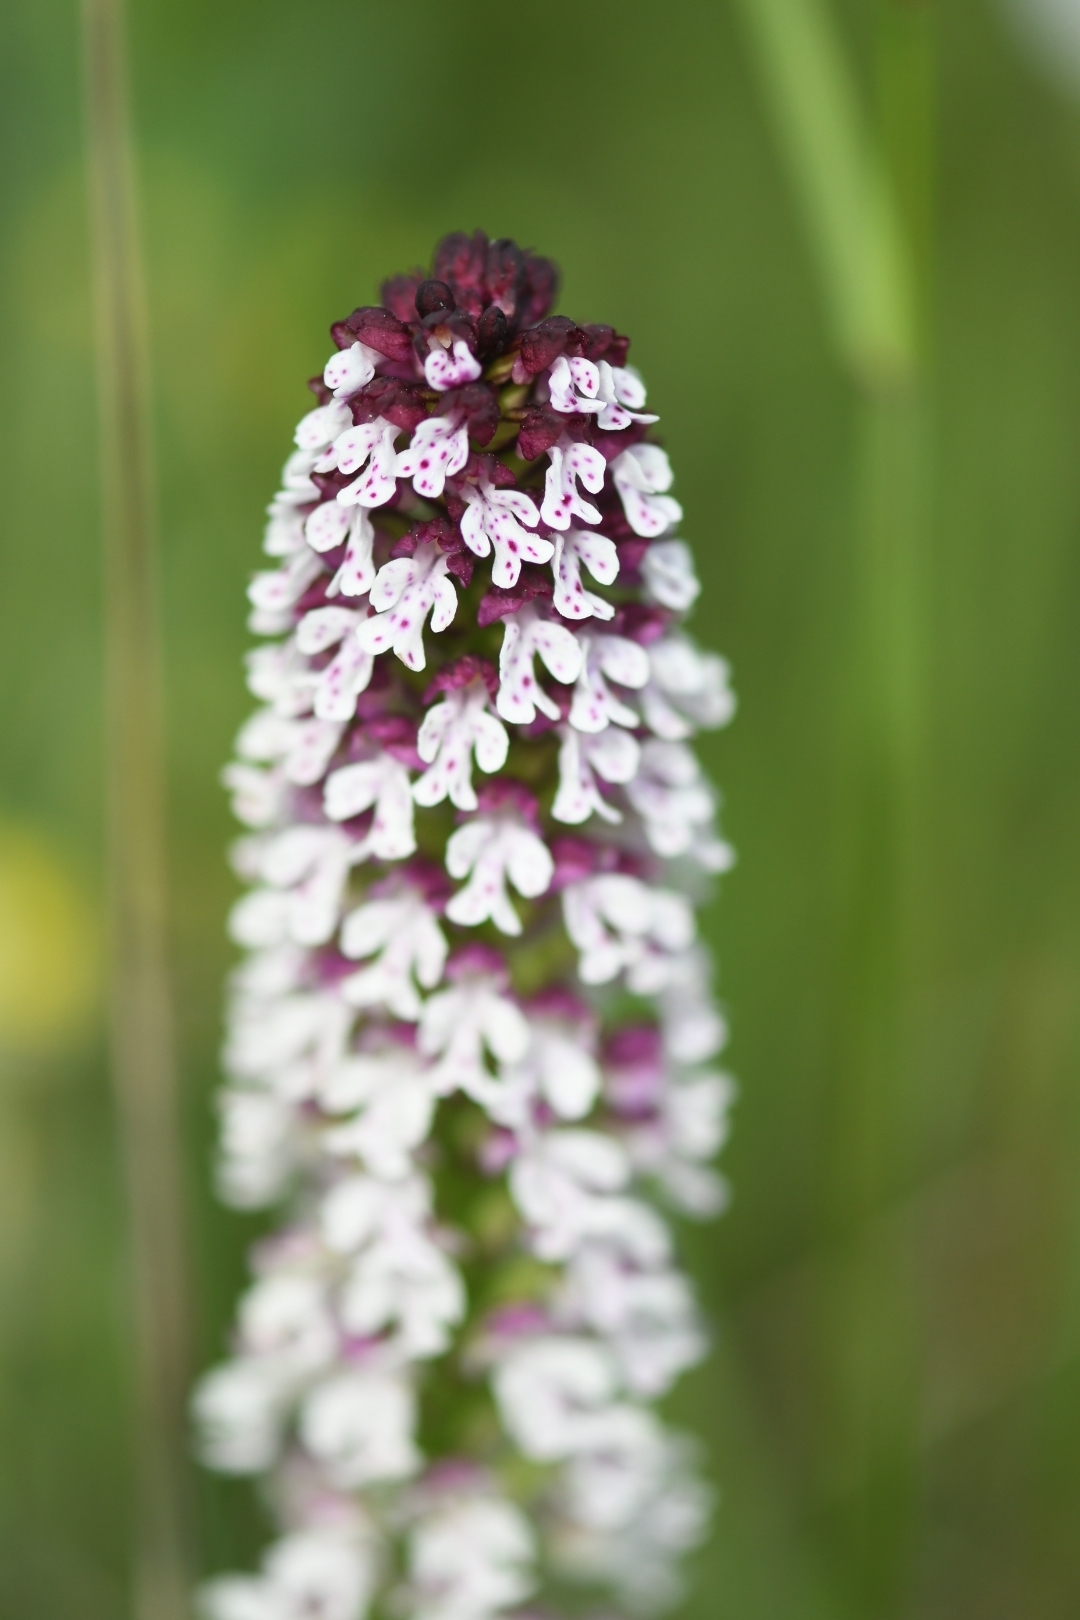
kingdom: Plantae
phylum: Tracheophyta
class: Liliopsida
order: Asparagales
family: Orchidaceae
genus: Neotinea
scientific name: Neotinea ustulata
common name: Burnt orchid
